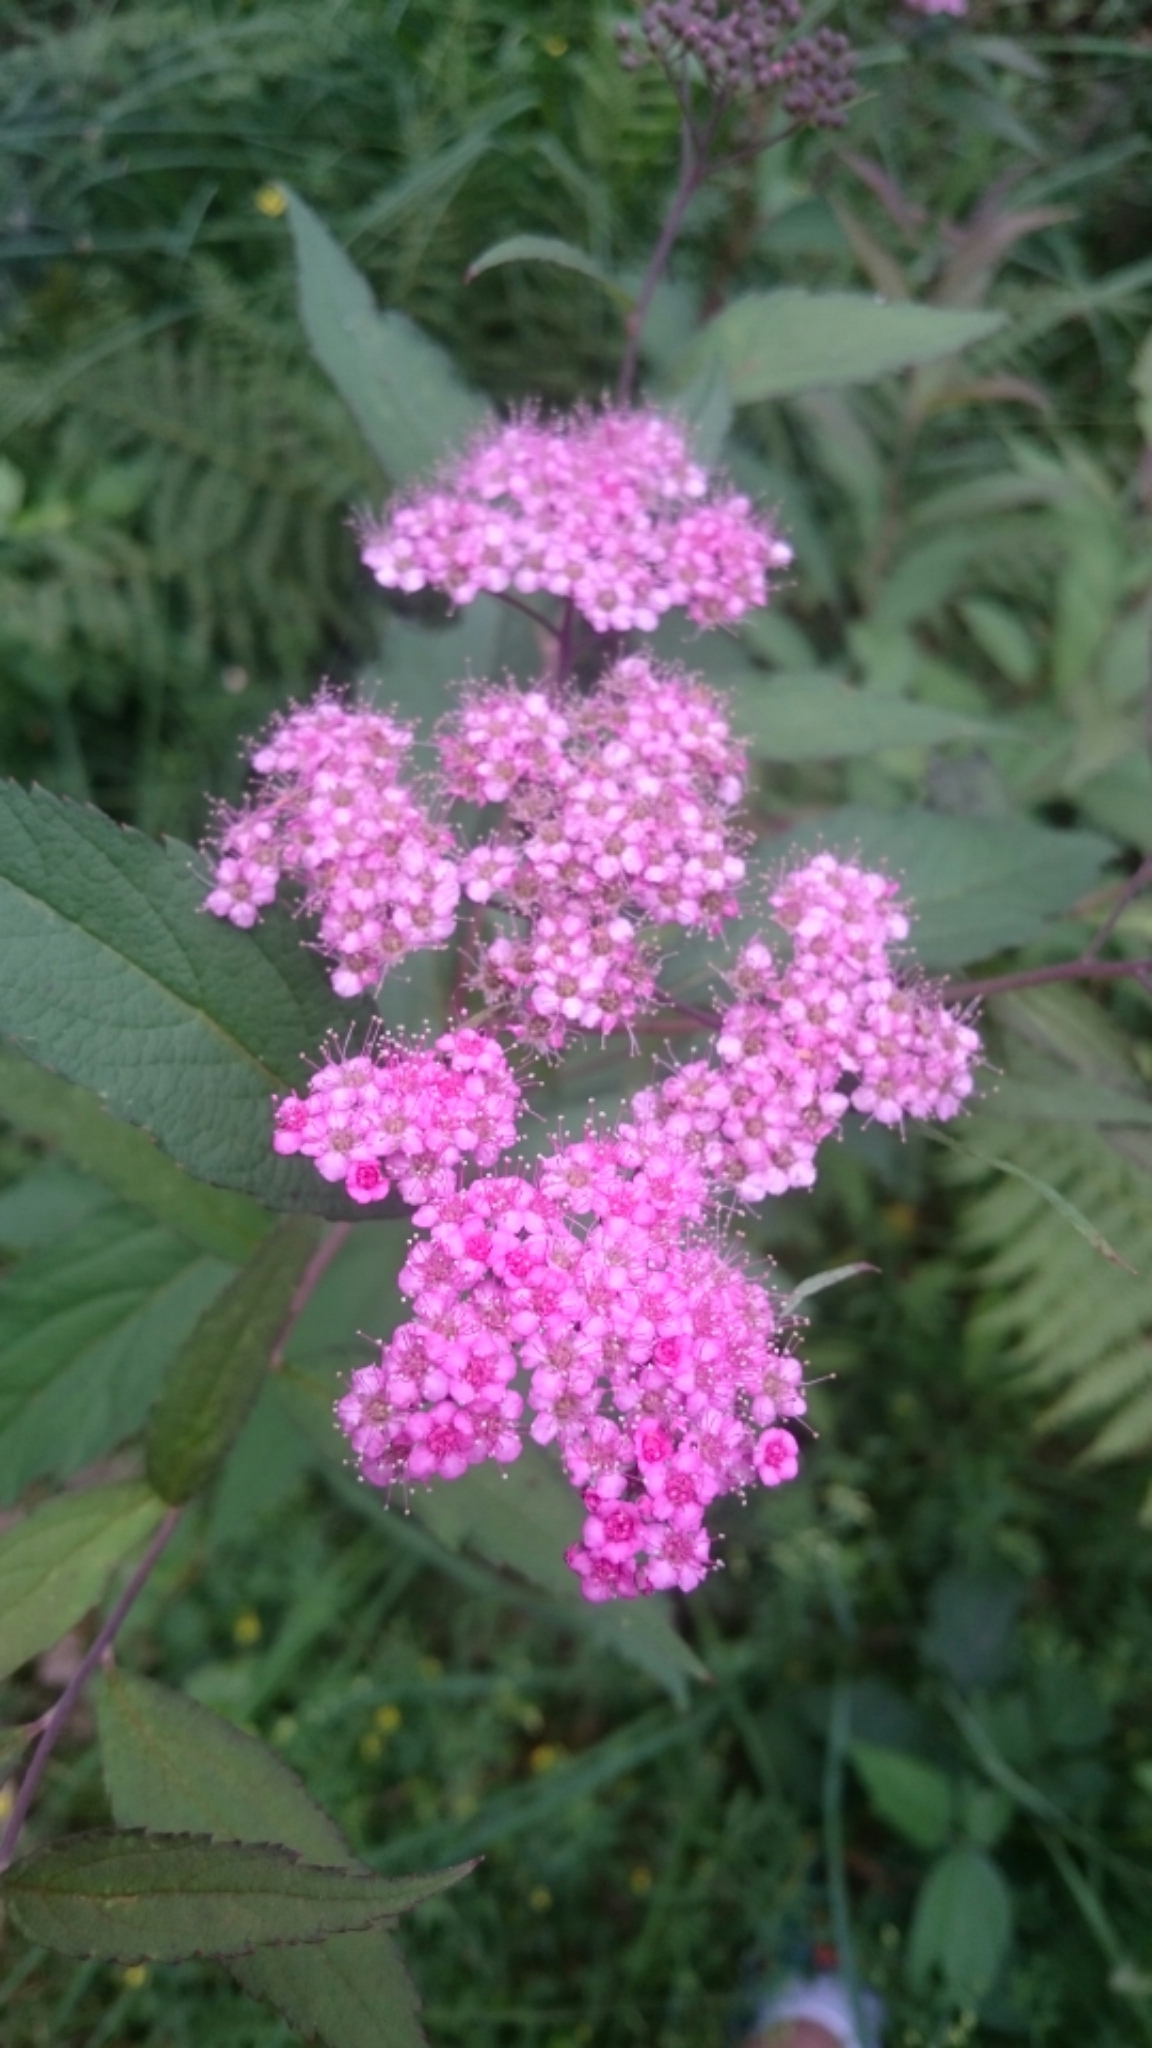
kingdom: Plantae
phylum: Tracheophyta
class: Magnoliopsida
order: Rosales
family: Rosaceae
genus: Spiraea
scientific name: Spiraea japonica
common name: Japanese spiraea
